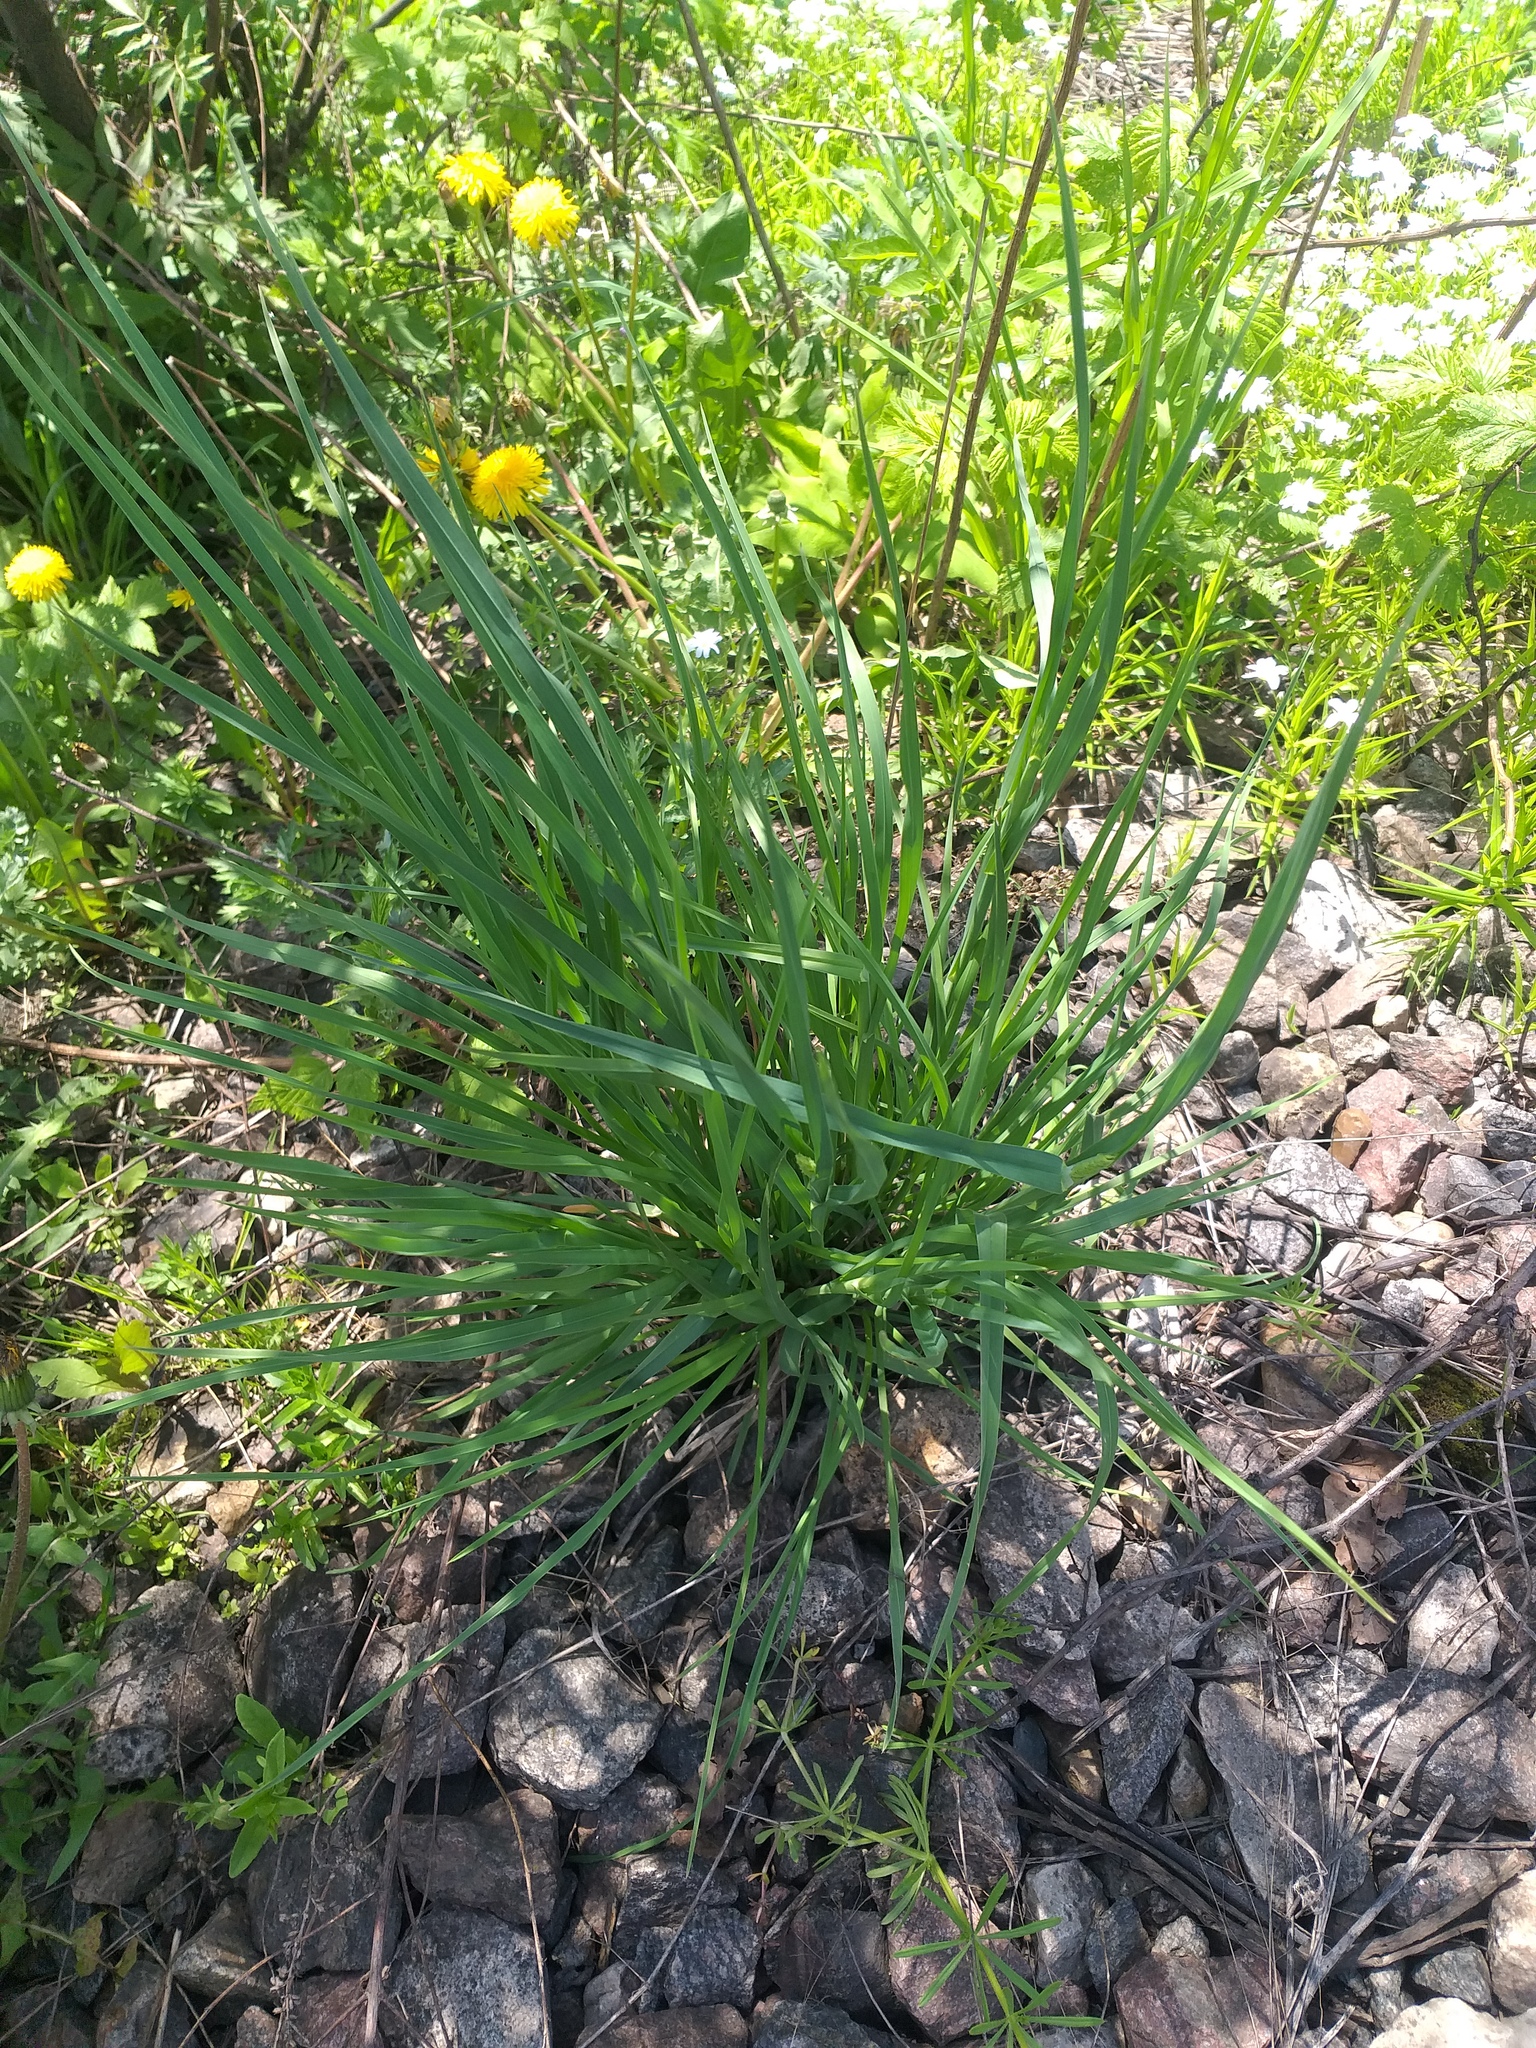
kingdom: Plantae
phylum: Tracheophyta
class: Liliopsida
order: Poales
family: Poaceae
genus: Dactylis
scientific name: Dactylis glomerata
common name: Orchardgrass
